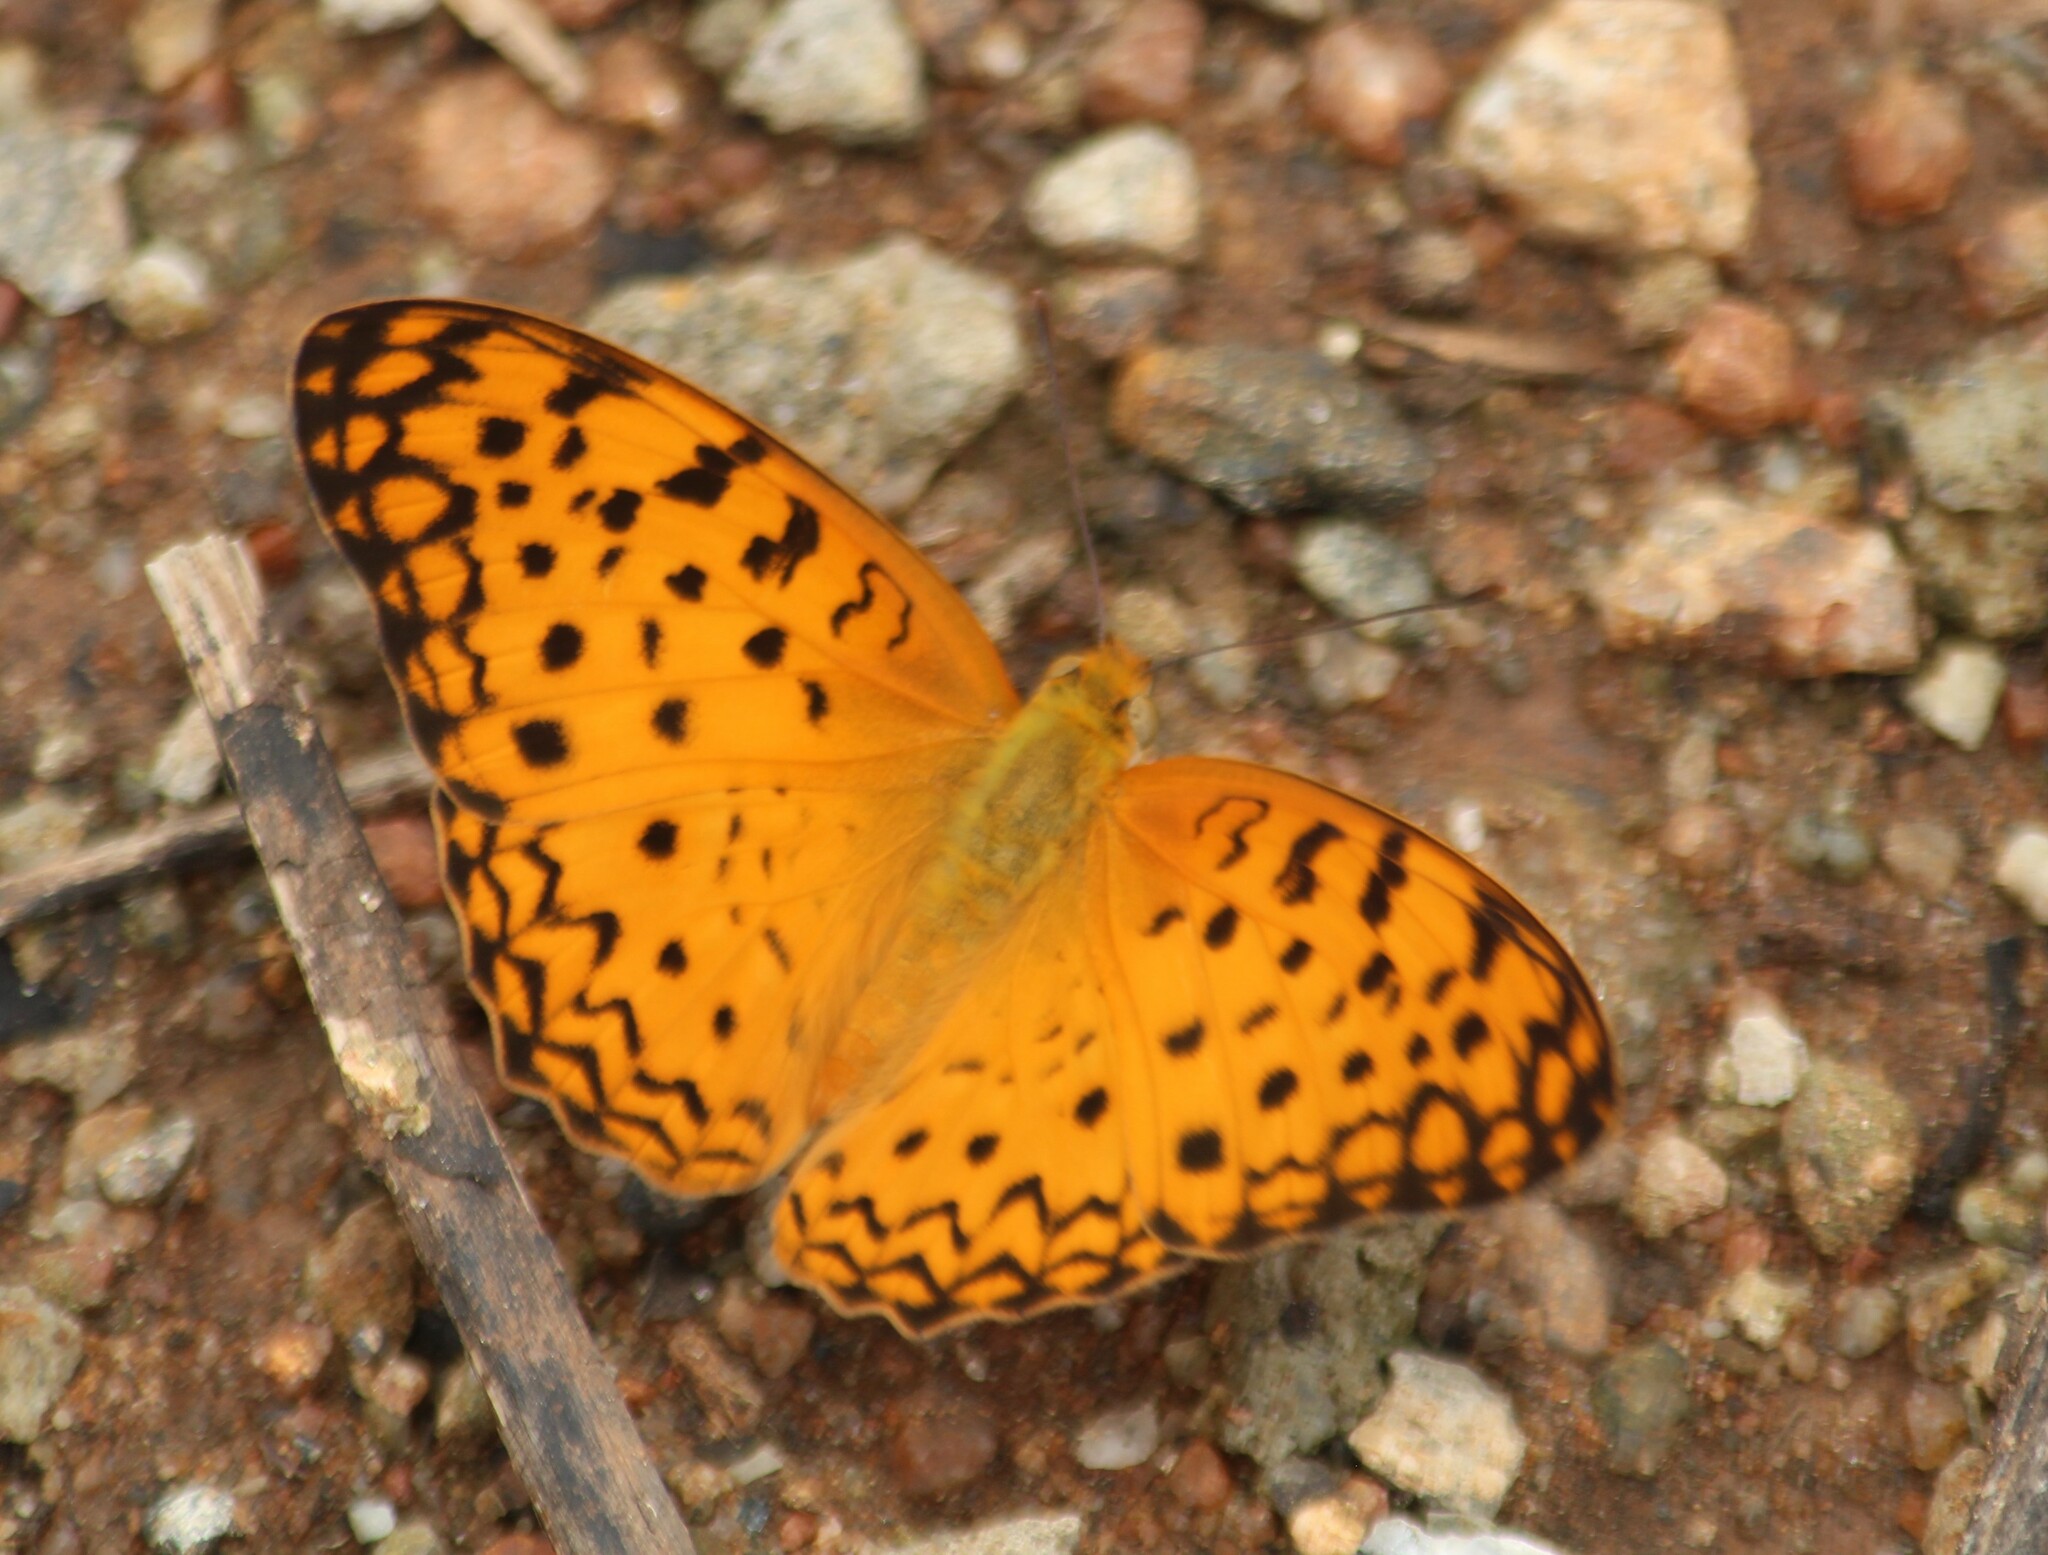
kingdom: Animalia
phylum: Arthropoda
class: Insecta
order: Lepidoptera
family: Nymphalidae
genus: Phalanta
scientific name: Phalanta phalantha
